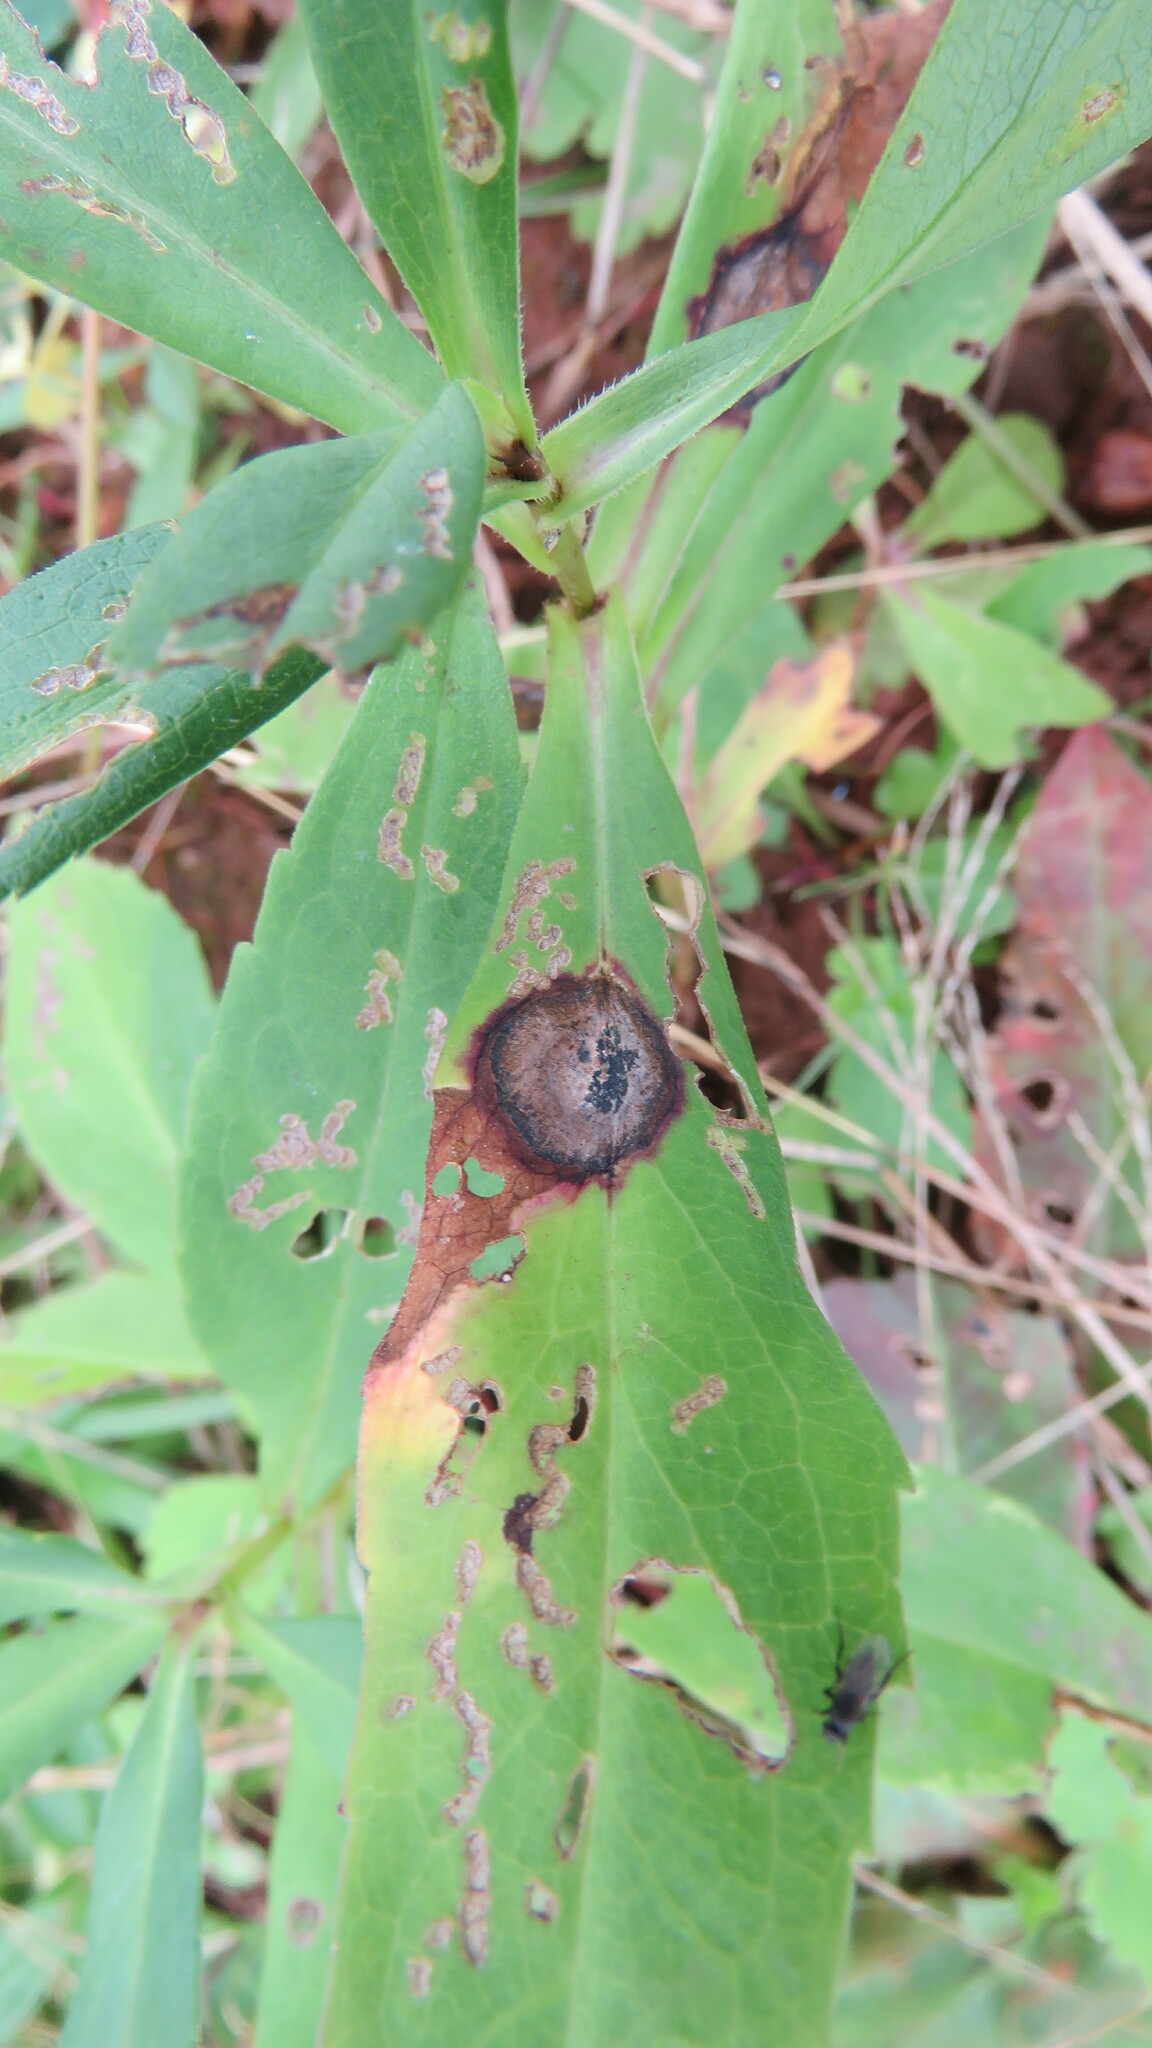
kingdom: Animalia
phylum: Arthropoda
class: Insecta
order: Diptera
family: Cecidomyiidae
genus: Asteromyia
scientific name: Asteromyia carbonifera
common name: Carbonifera goldenrod gall midge
